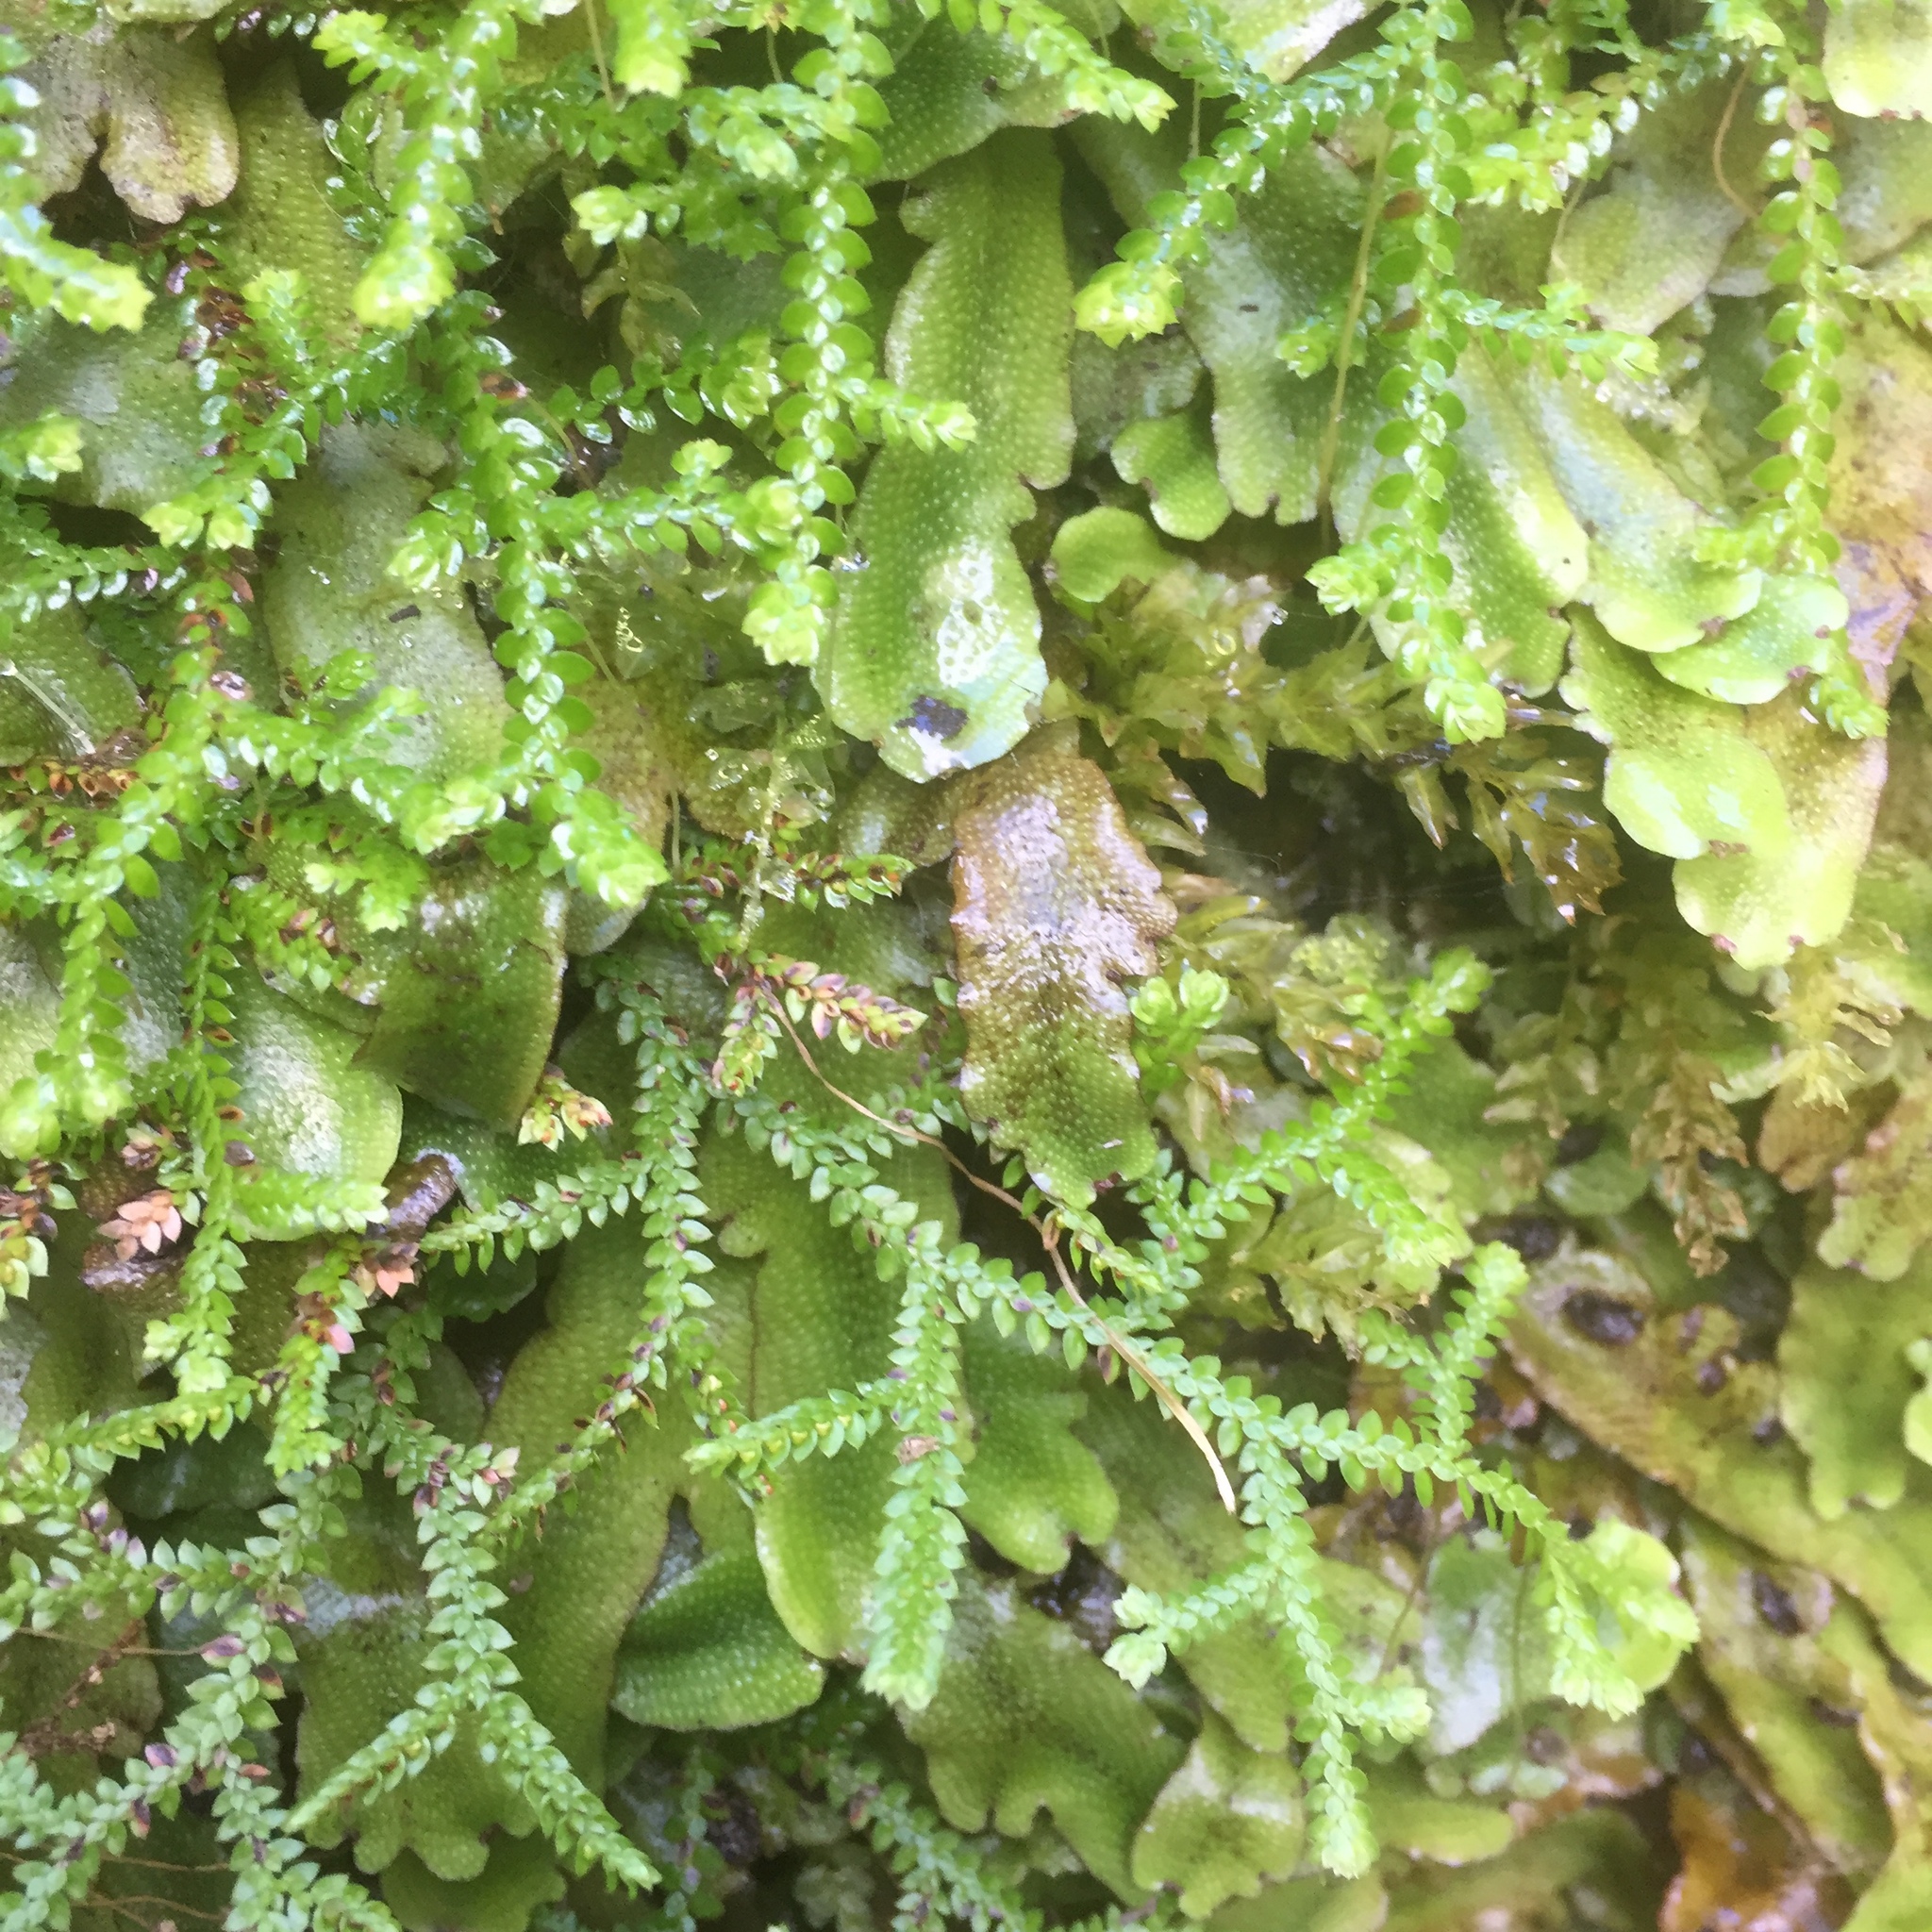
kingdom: Plantae
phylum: Tracheophyta
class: Lycopodiopsida
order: Selaginellales
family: Selaginellaceae
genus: Selaginella
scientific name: Selaginella denticulata
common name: Toothed-leaved clubmoss
